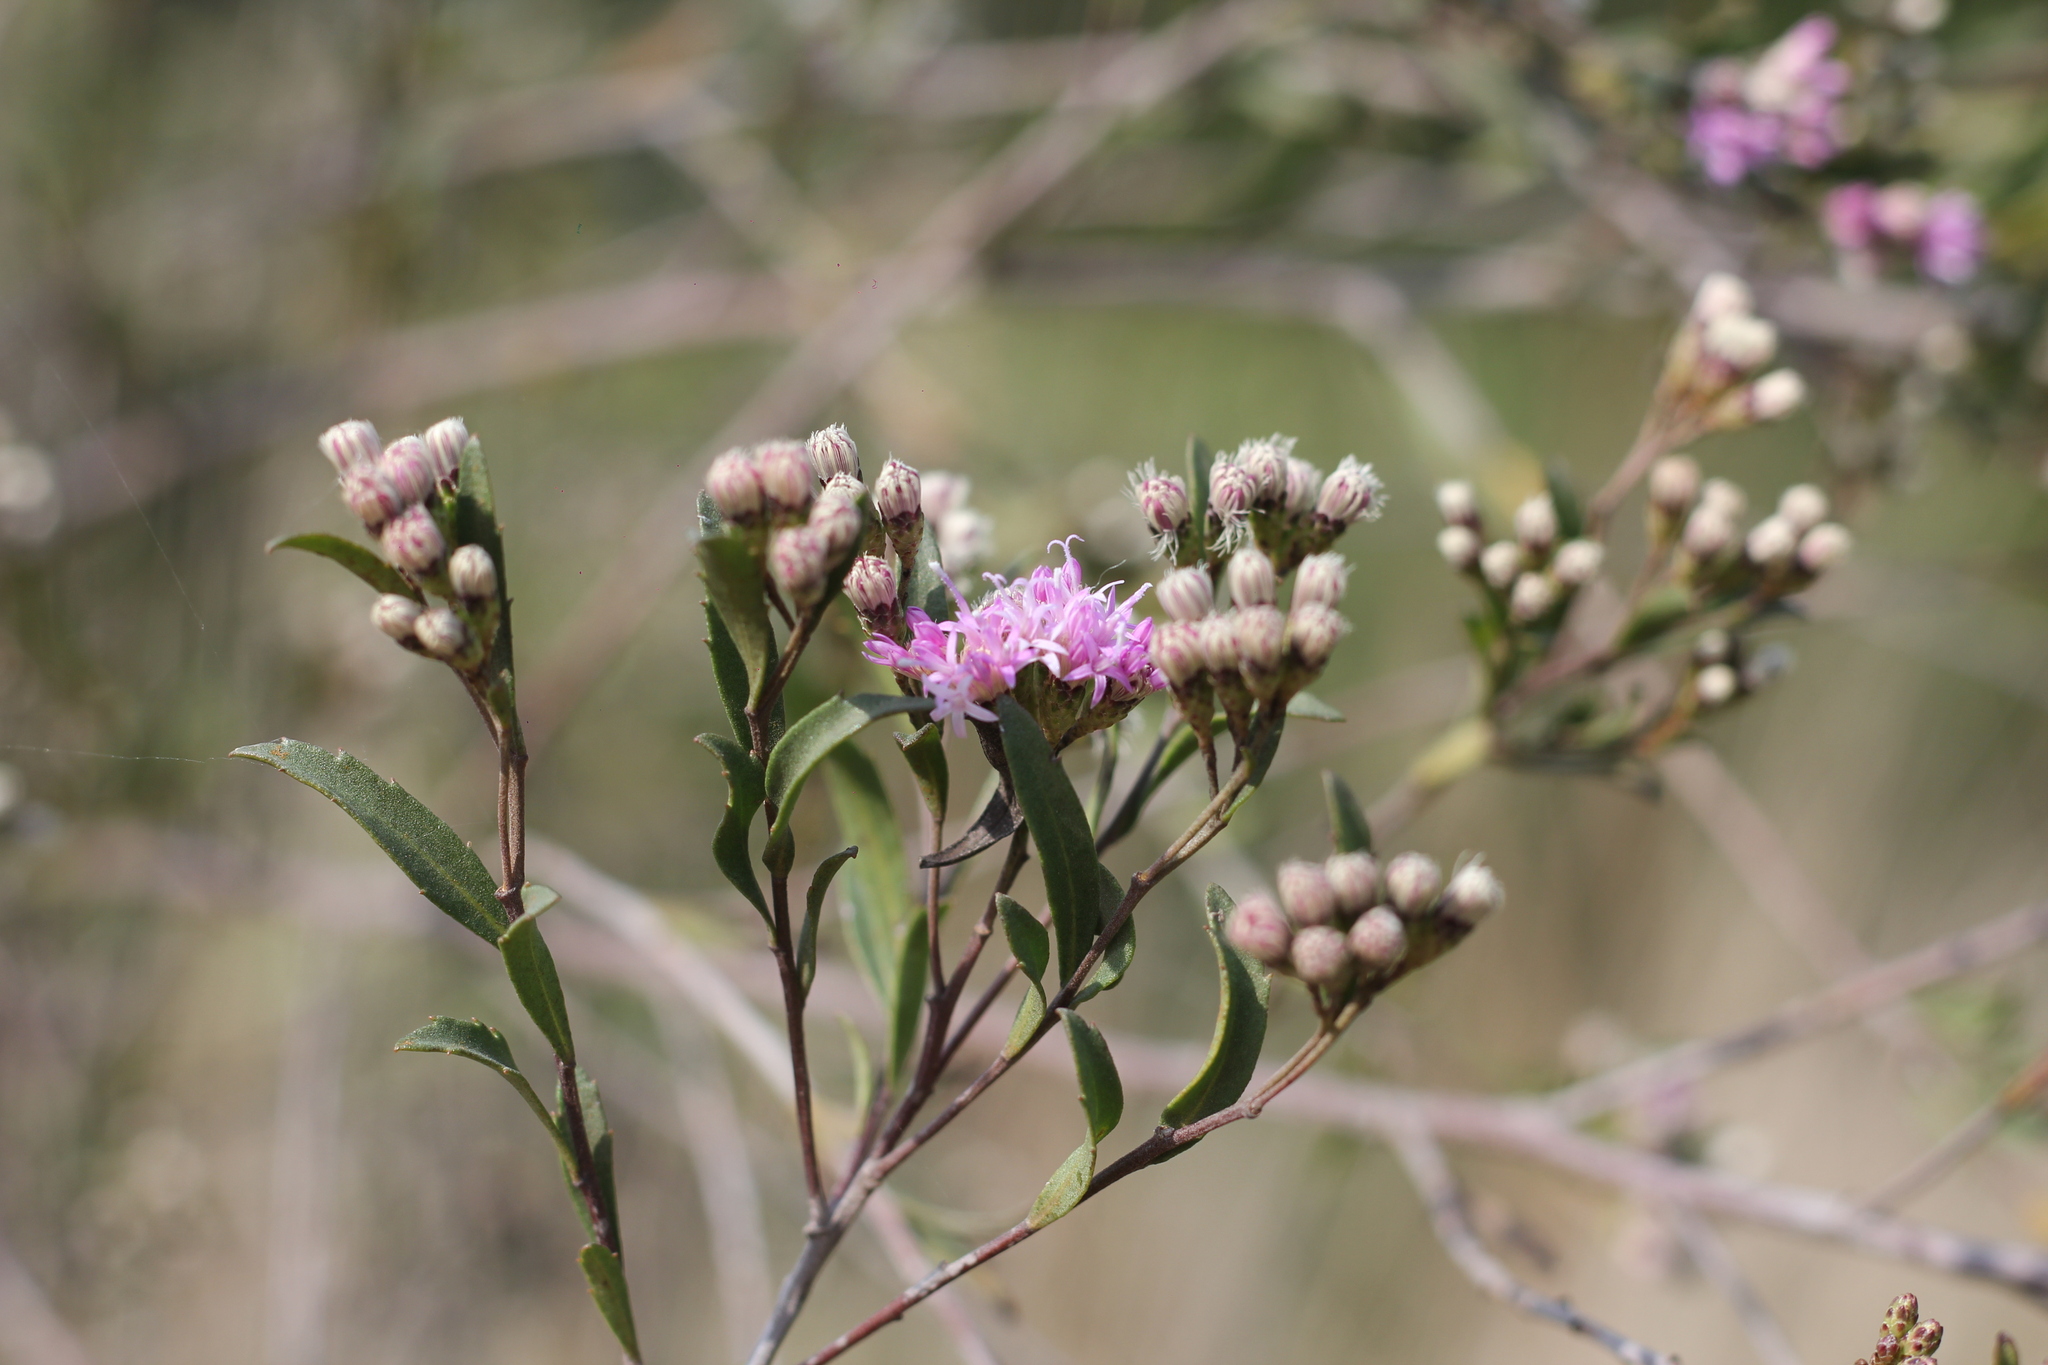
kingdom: Plantae
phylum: Tracheophyta
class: Magnoliopsida
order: Asterales
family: Asteraceae
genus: Vernonanthura
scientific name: Vernonanthura montevidensis
